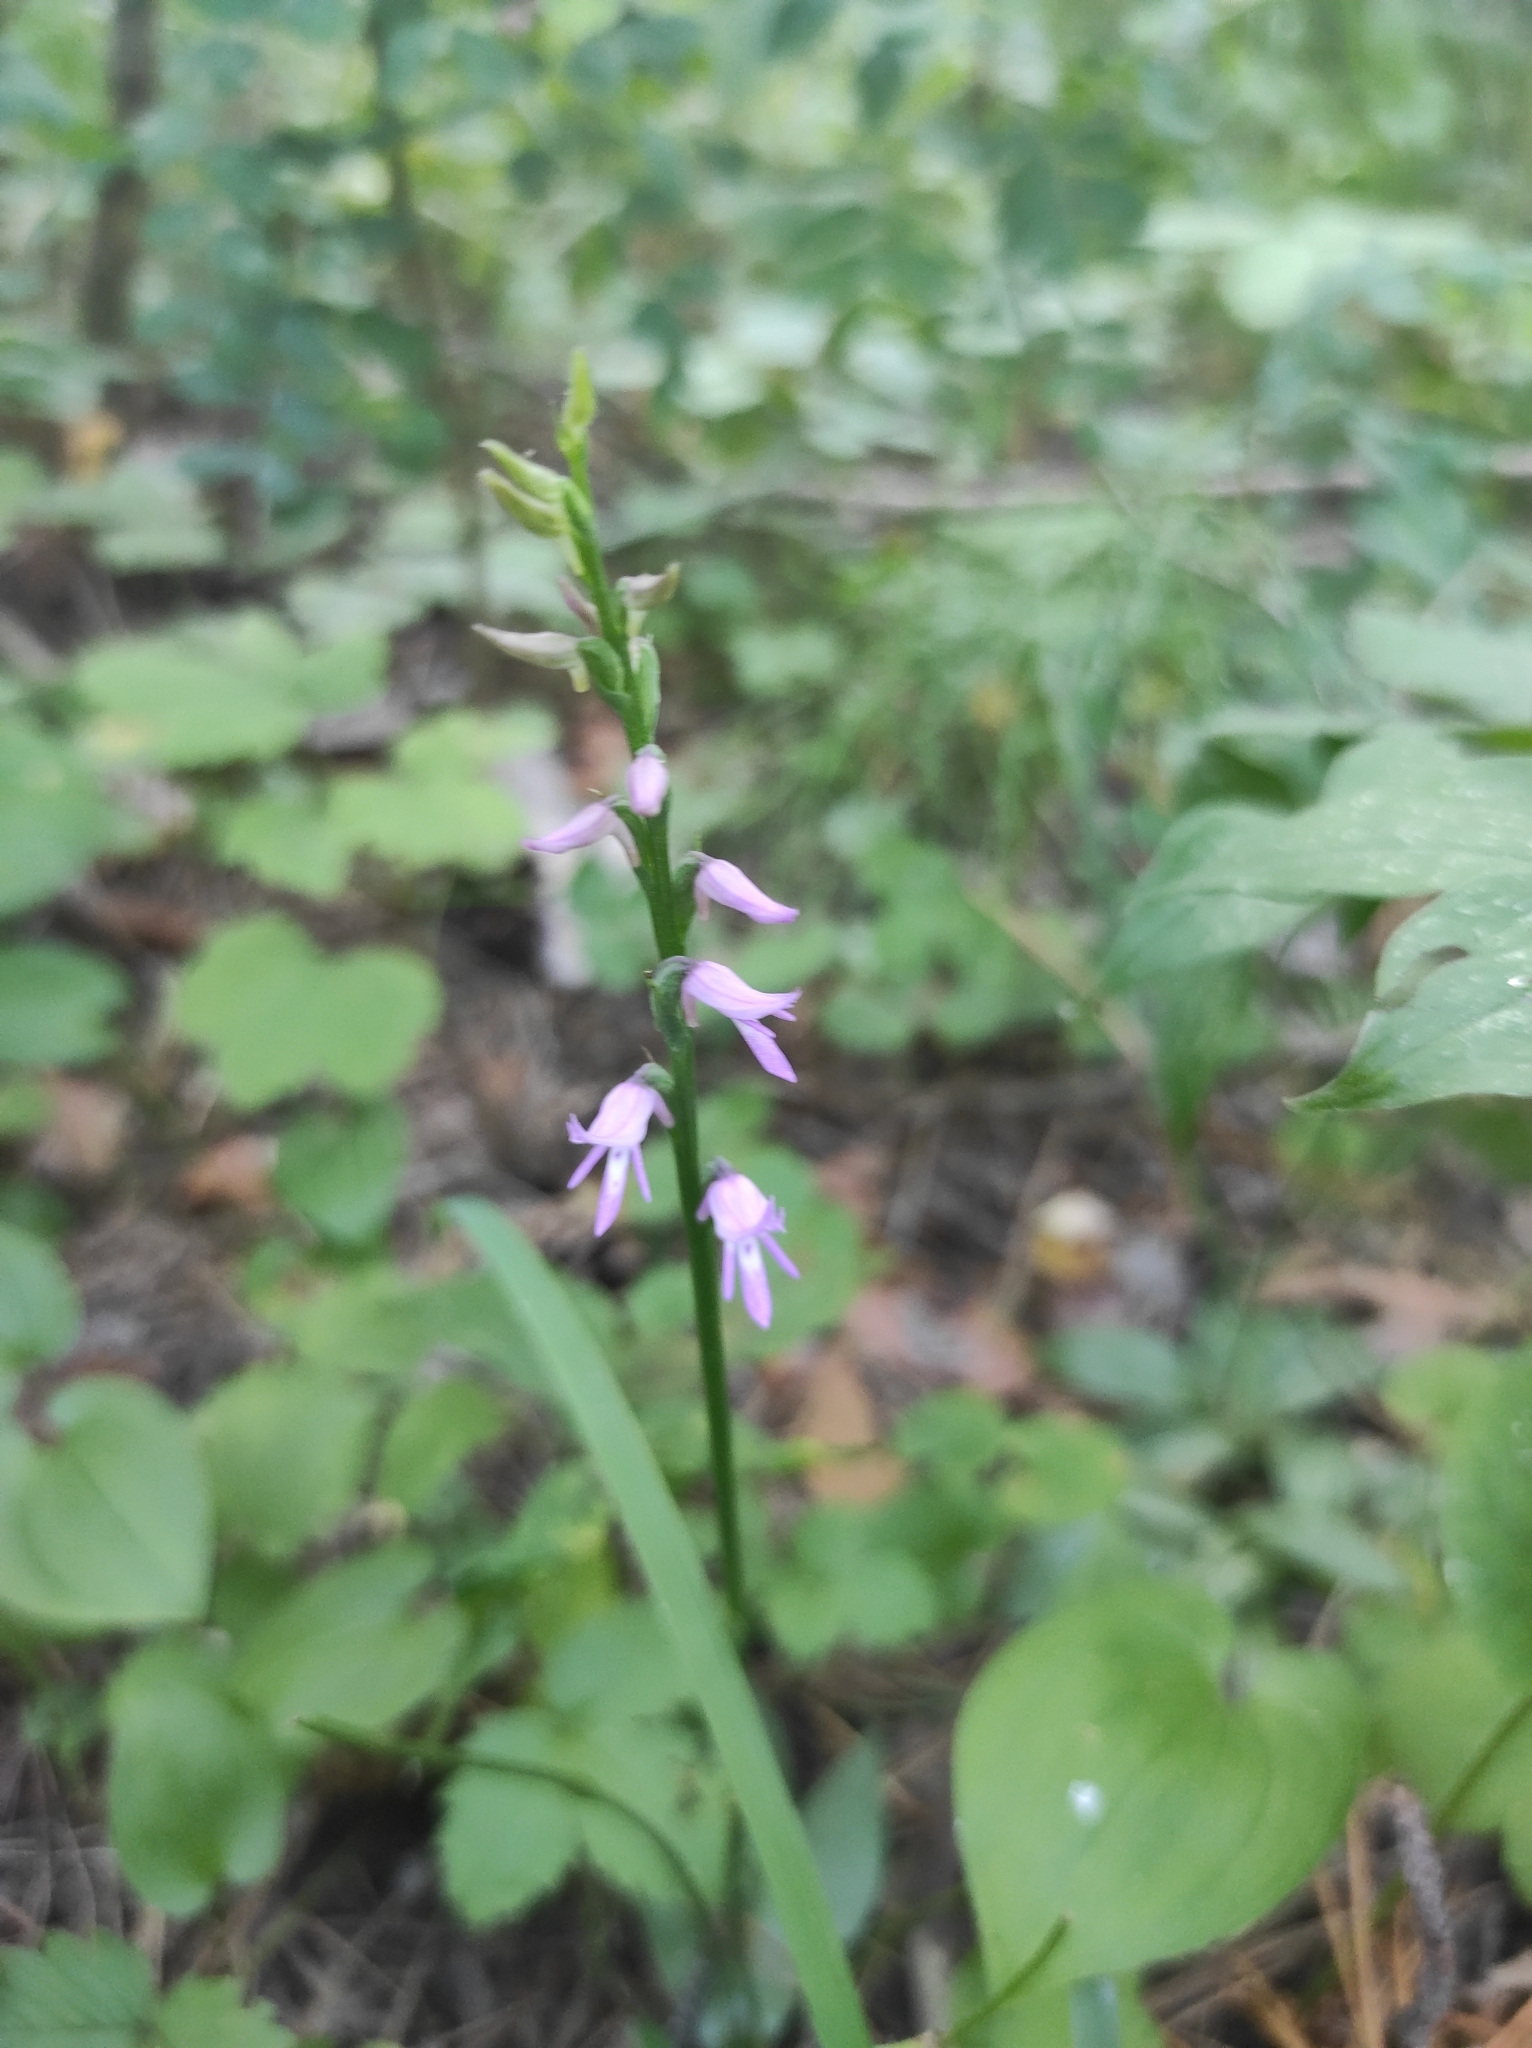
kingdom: Plantae
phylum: Tracheophyta
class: Liliopsida
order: Asparagales
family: Orchidaceae
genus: Hemipilia
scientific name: Hemipilia cucullata
